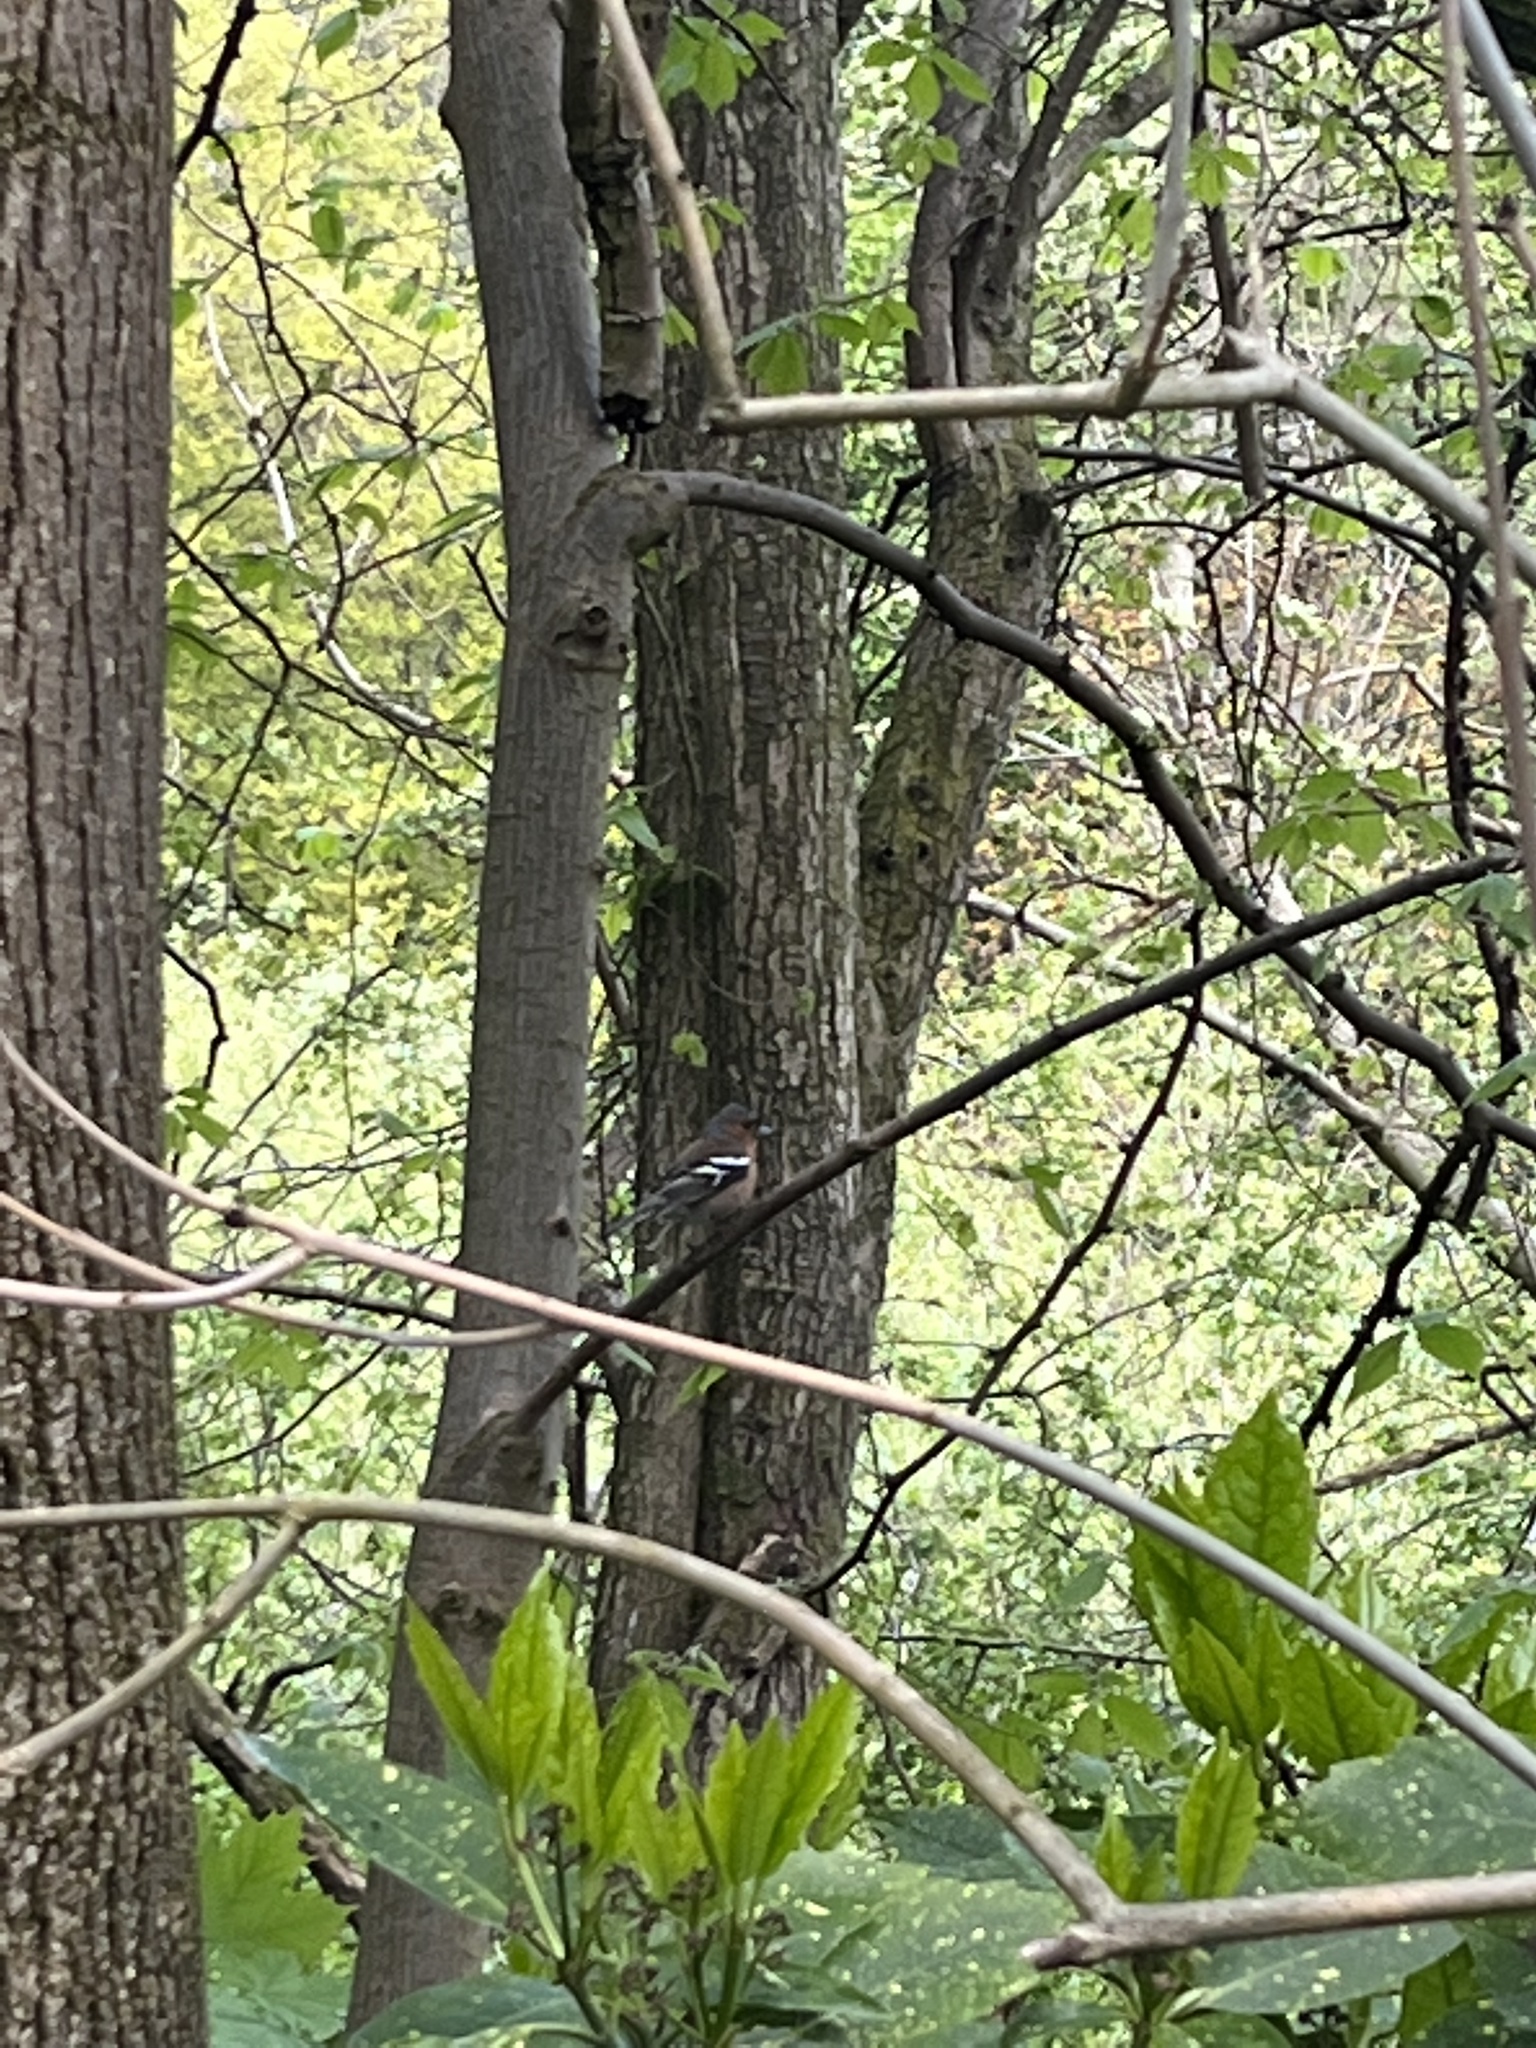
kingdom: Animalia
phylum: Chordata
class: Aves
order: Passeriformes
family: Fringillidae
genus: Fringilla
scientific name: Fringilla coelebs
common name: Common chaffinch
